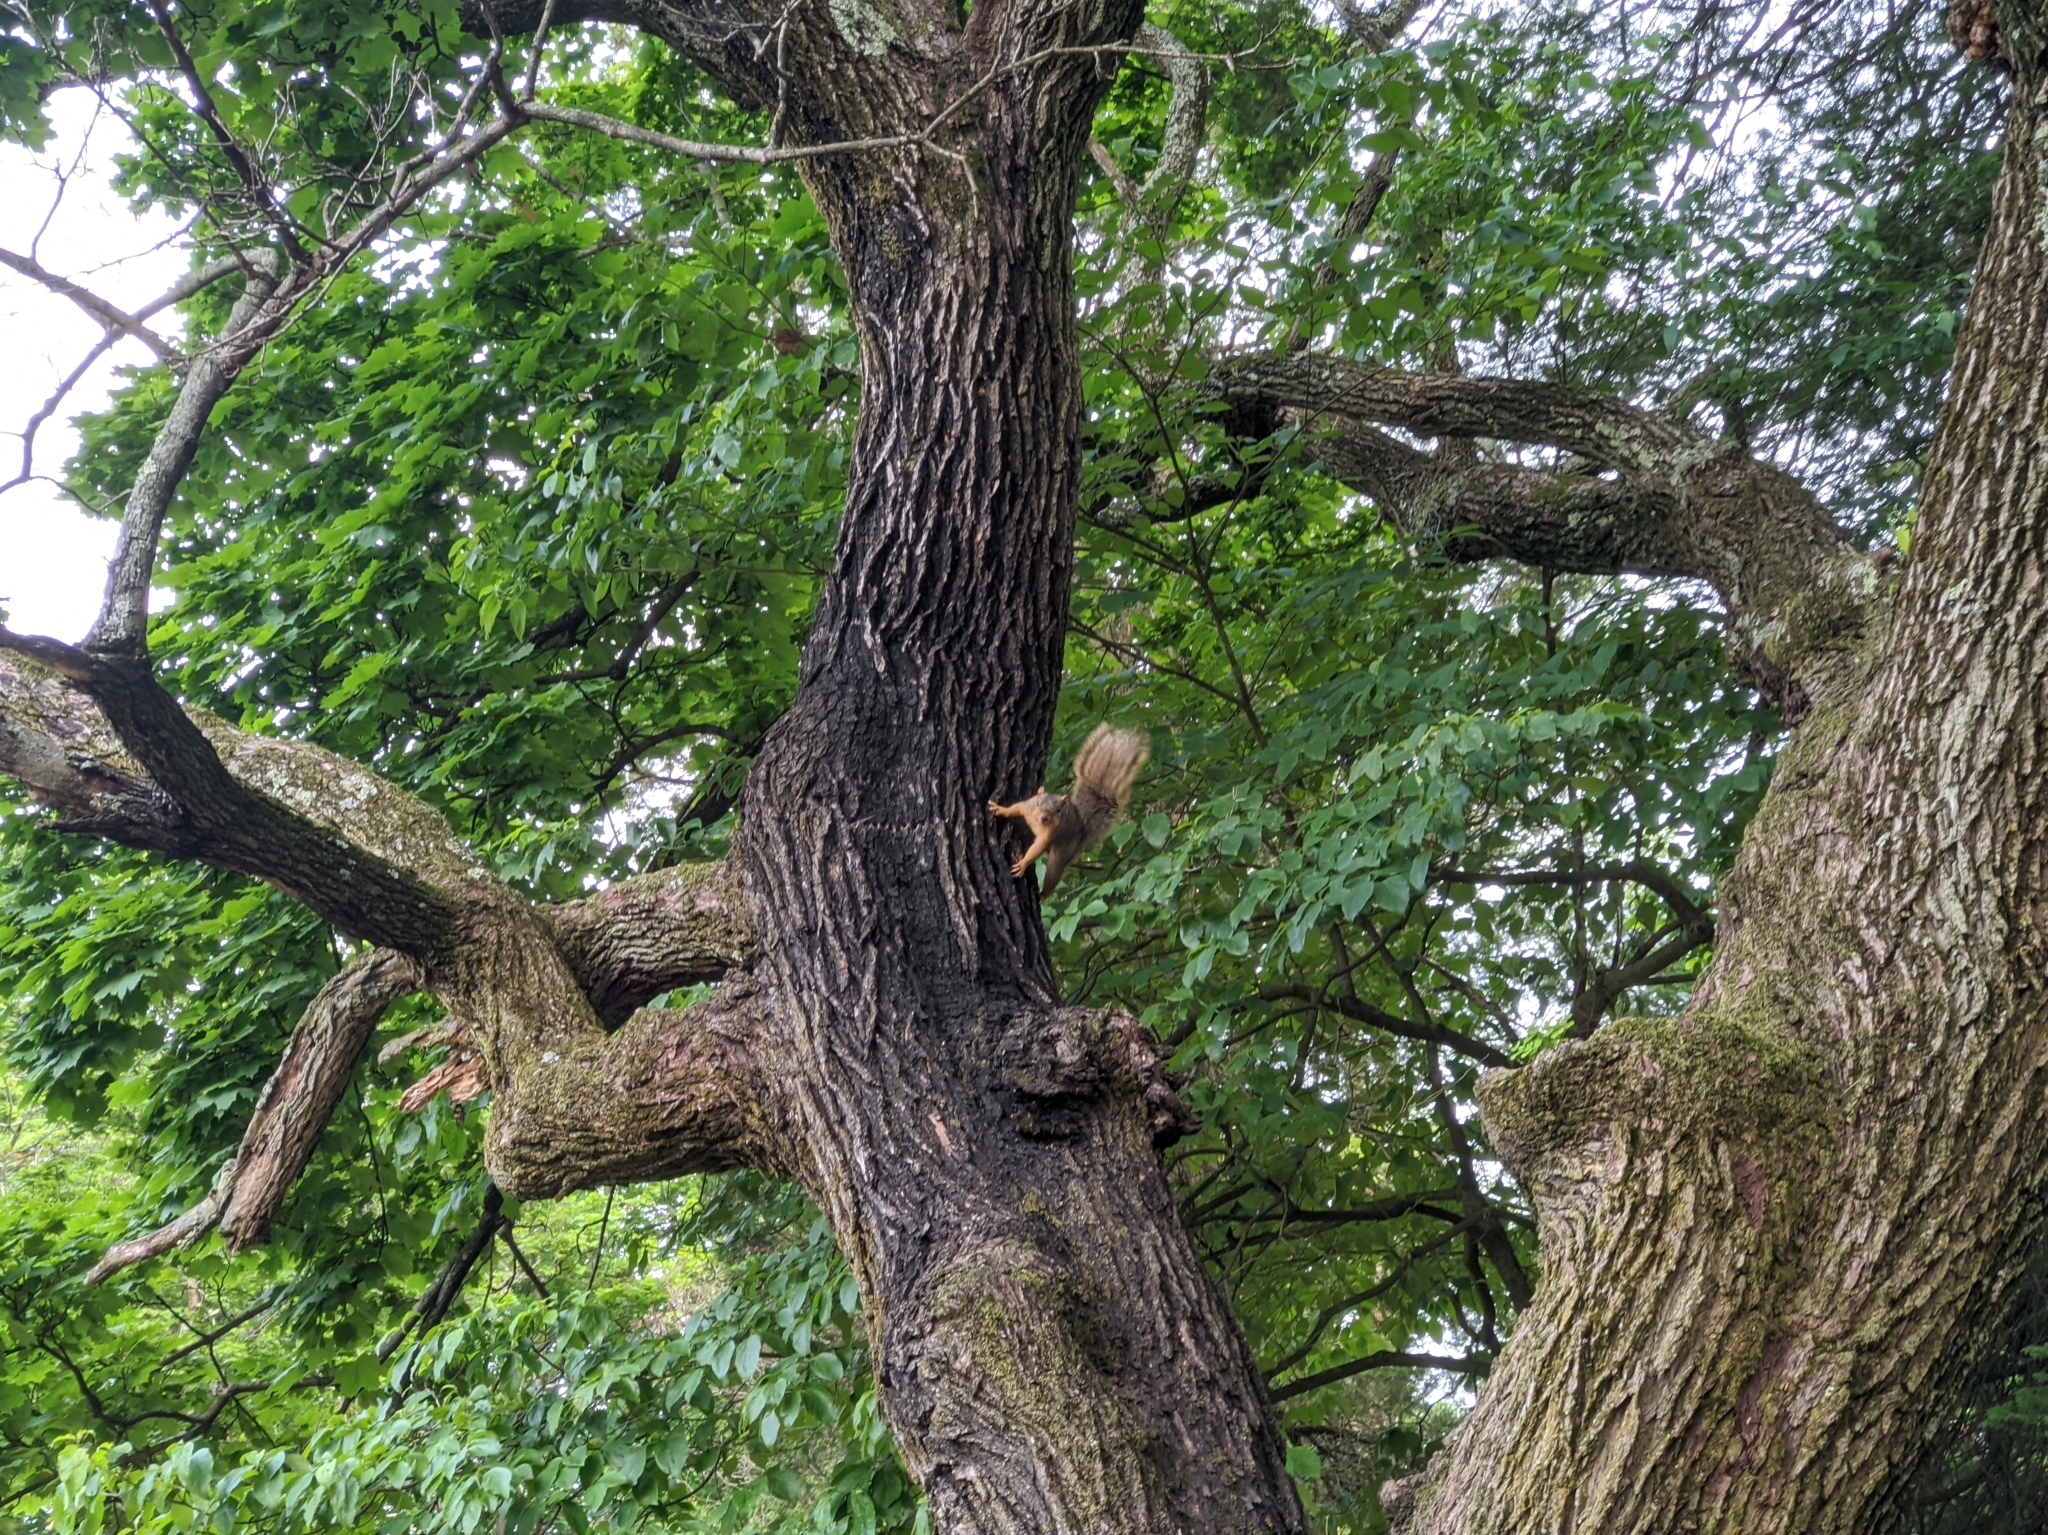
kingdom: Animalia
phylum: Chordata
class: Mammalia
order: Rodentia
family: Sciuridae
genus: Sciurus
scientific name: Sciurus niger
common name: Fox squirrel
